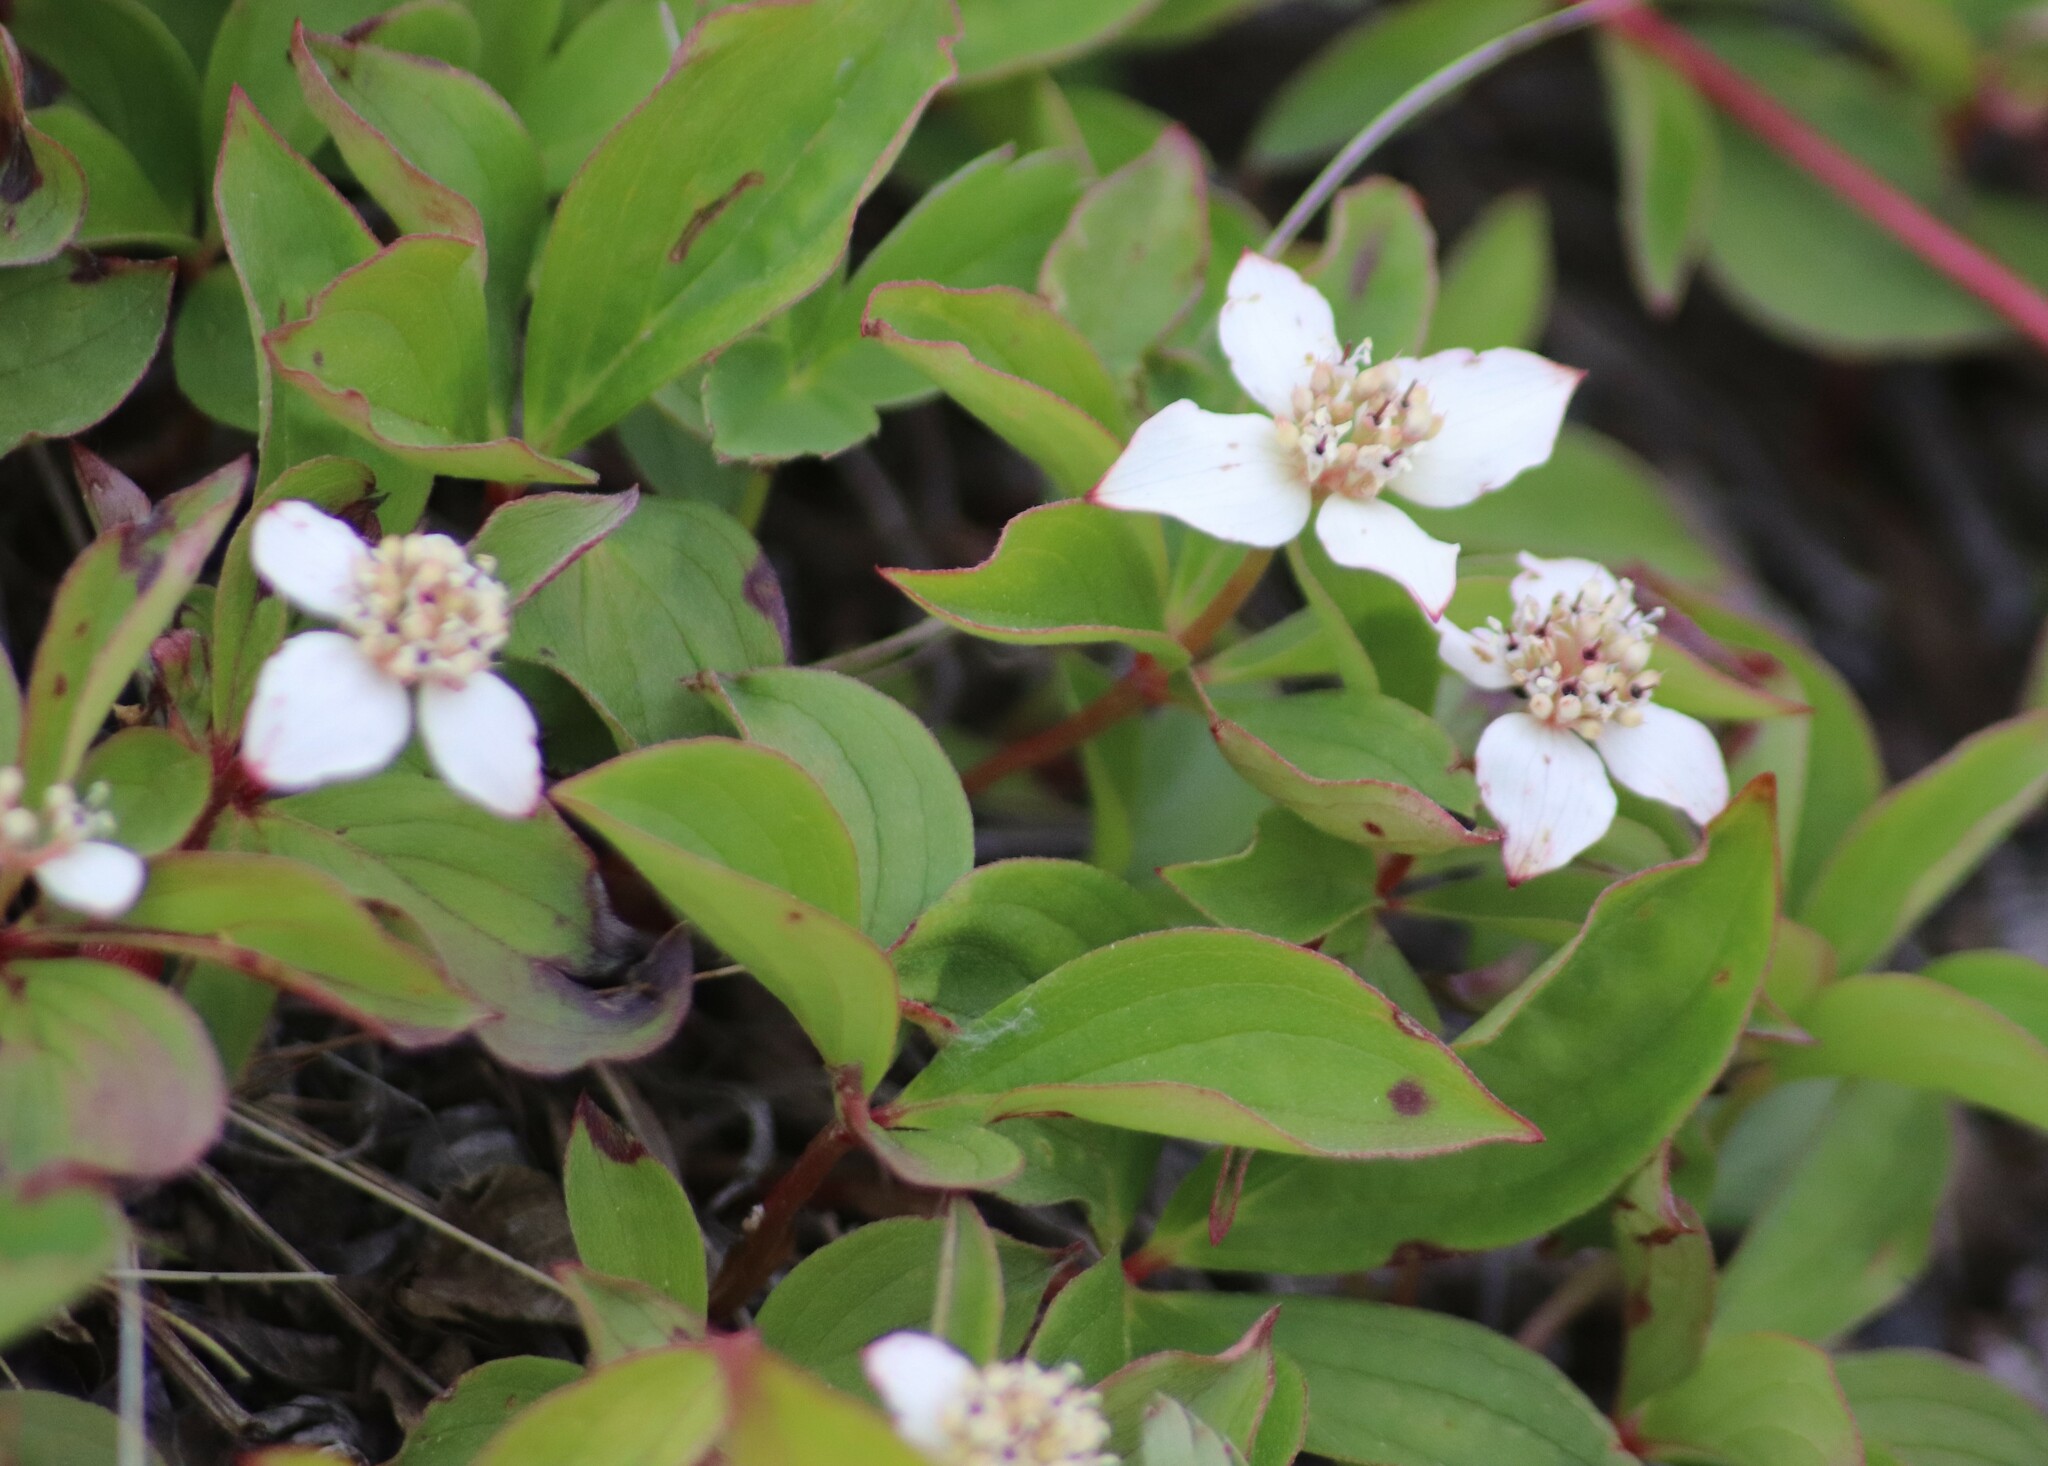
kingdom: Plantae
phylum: Tracheophyta
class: Magnoliopsida
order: Cornales
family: Cornaceae
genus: Cornus
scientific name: Cornus canadensis
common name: Creeping dogwood
